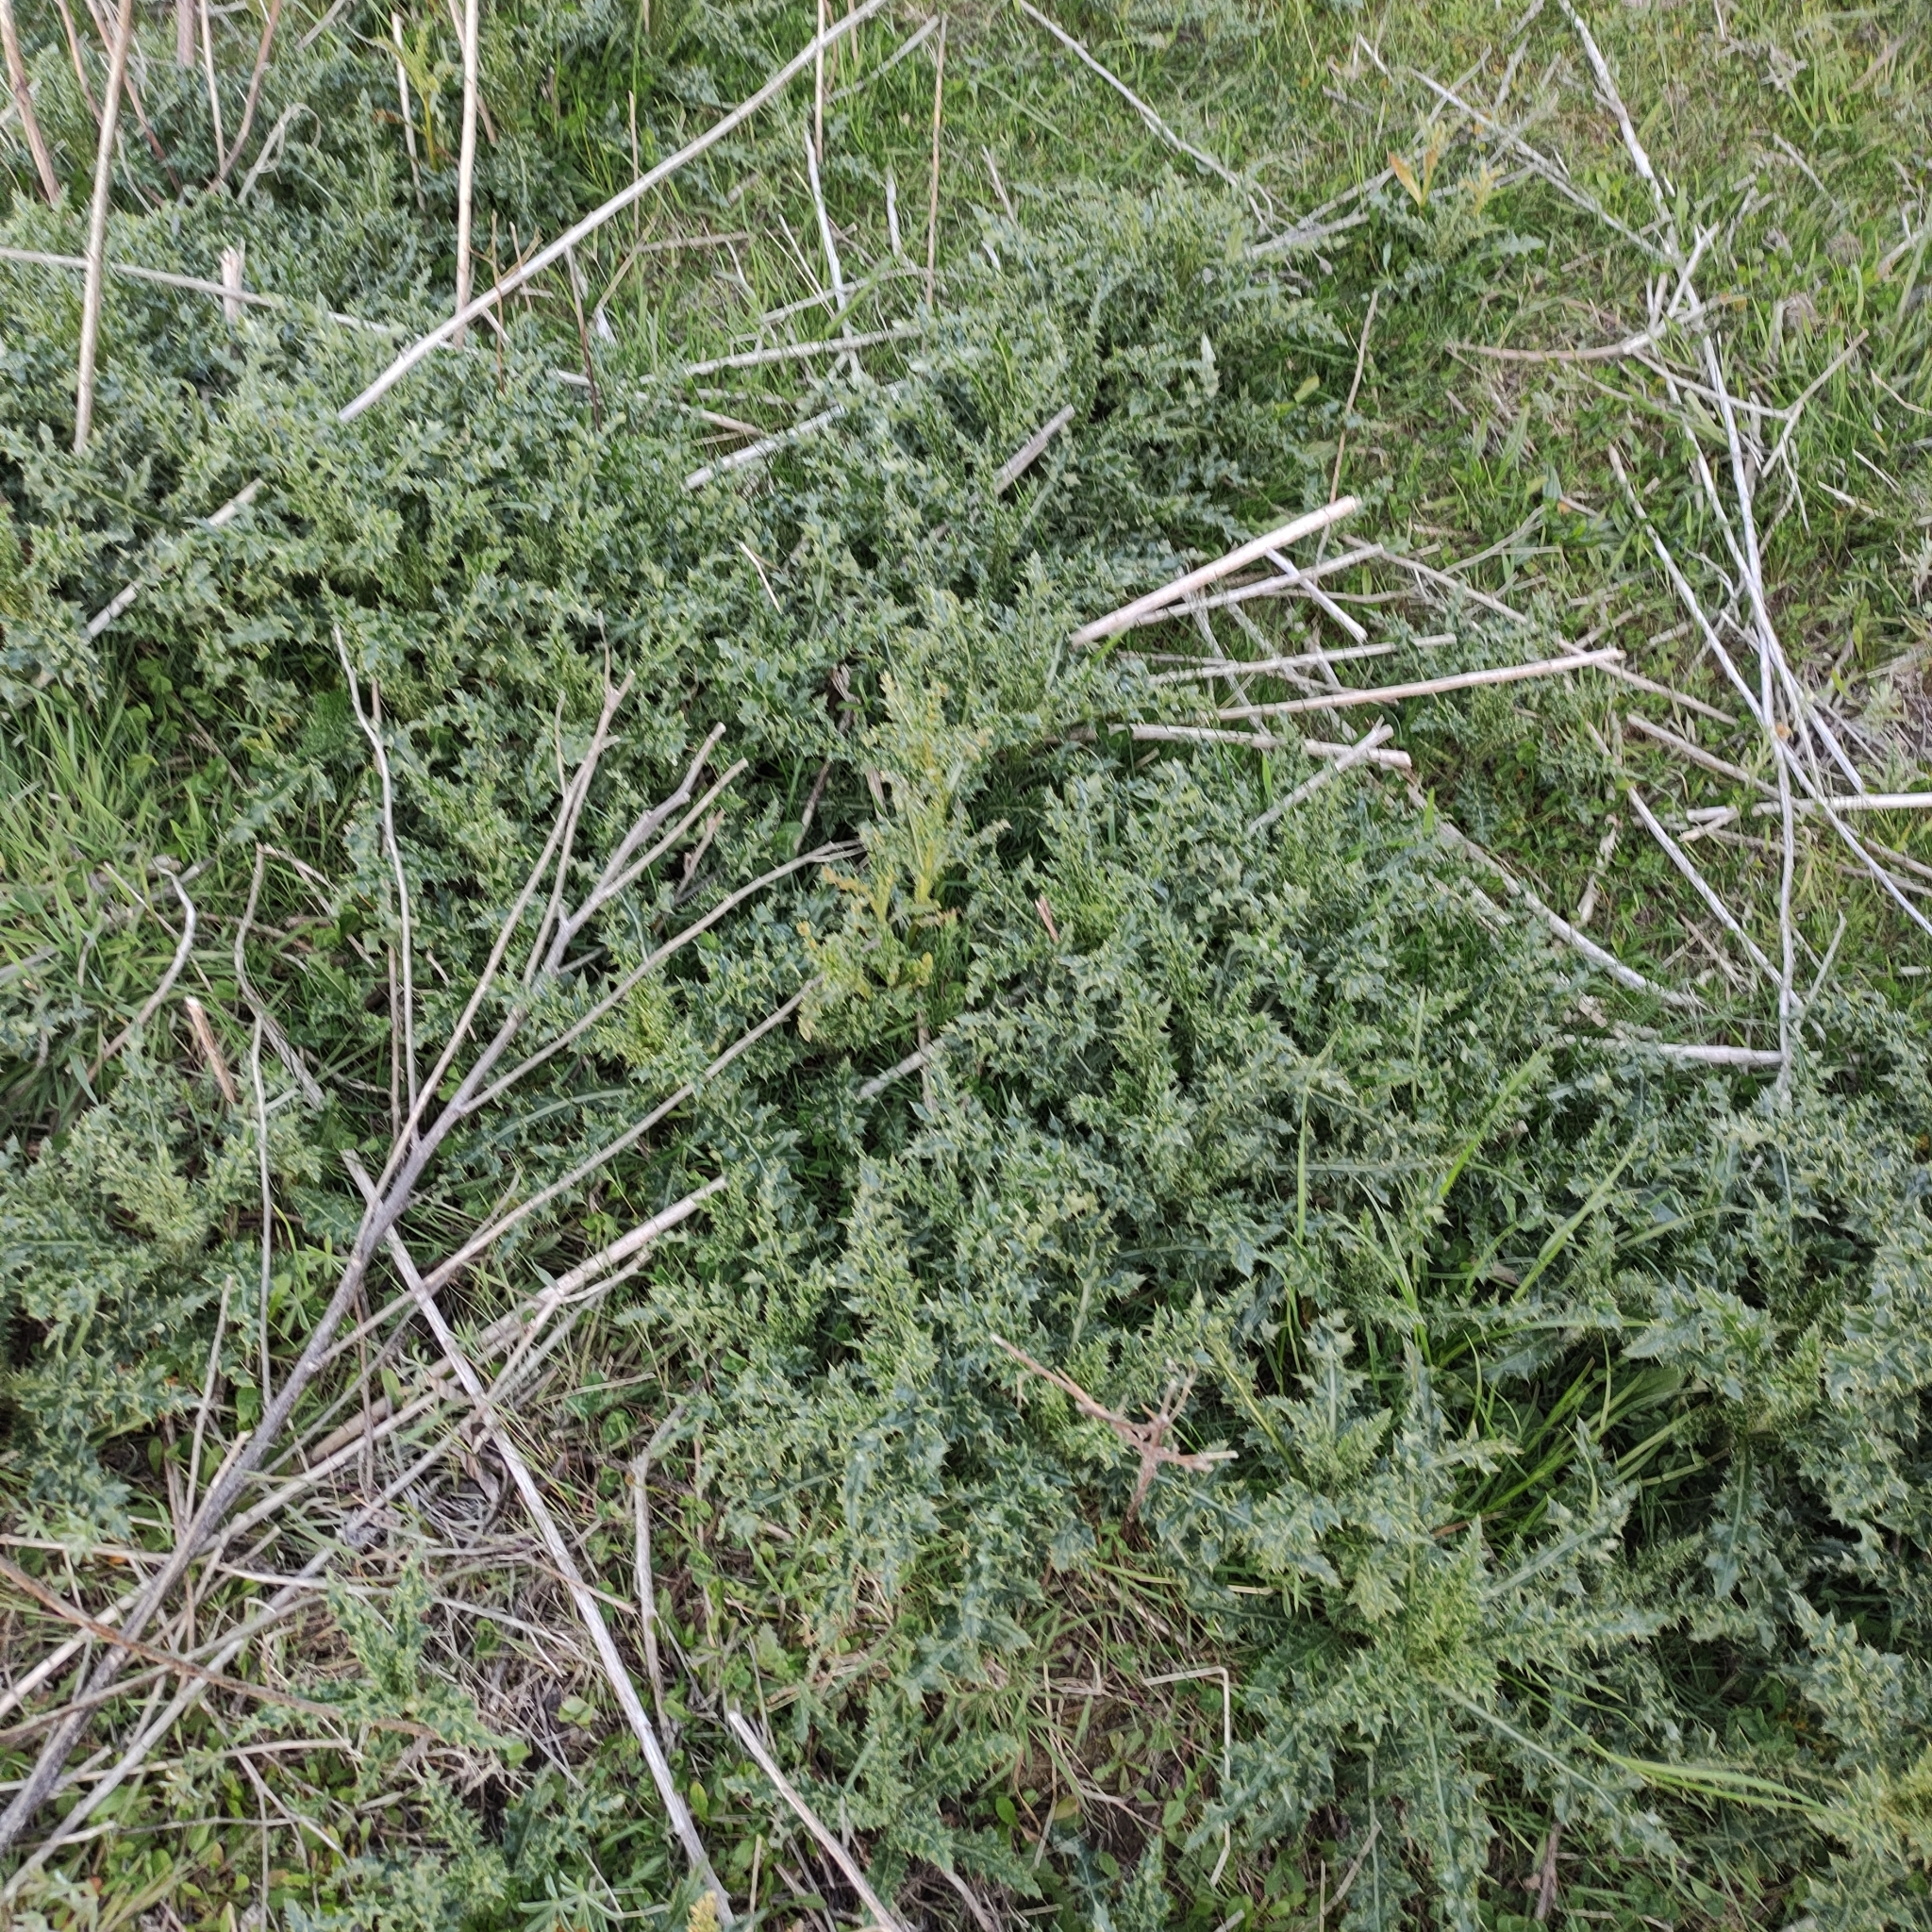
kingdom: Plantae
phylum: Tracheophyta
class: Magnoliopsida
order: Asterales
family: Asteraceae
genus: Cirsium
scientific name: Cirsium arvense
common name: Creeping thistle
